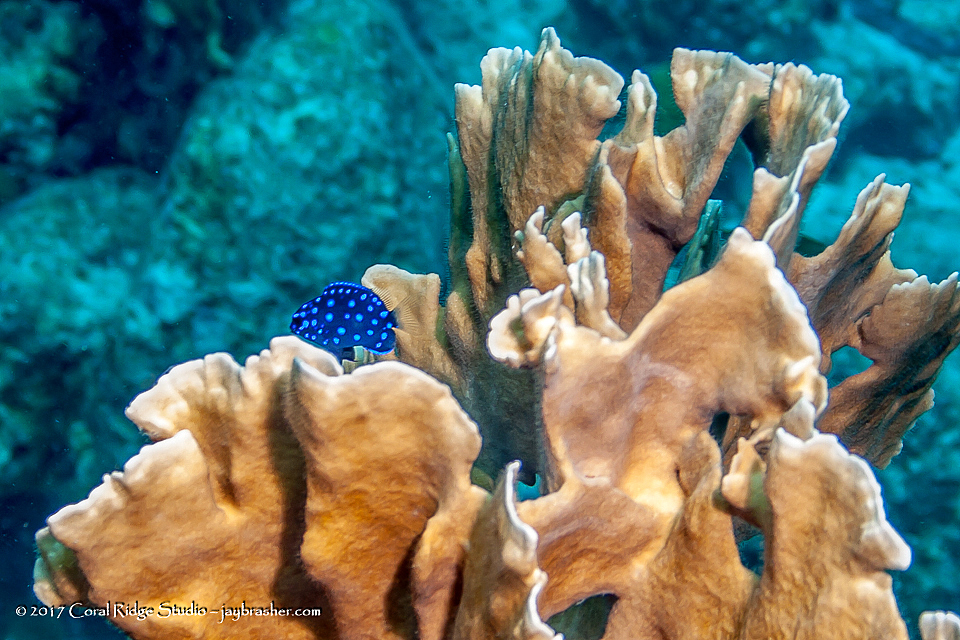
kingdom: Animalia
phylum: Chordata
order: Perciformes
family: Pomacentridae
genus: Microspathodon
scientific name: Microspathodon chrysurus
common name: Yellowtail damselfish
